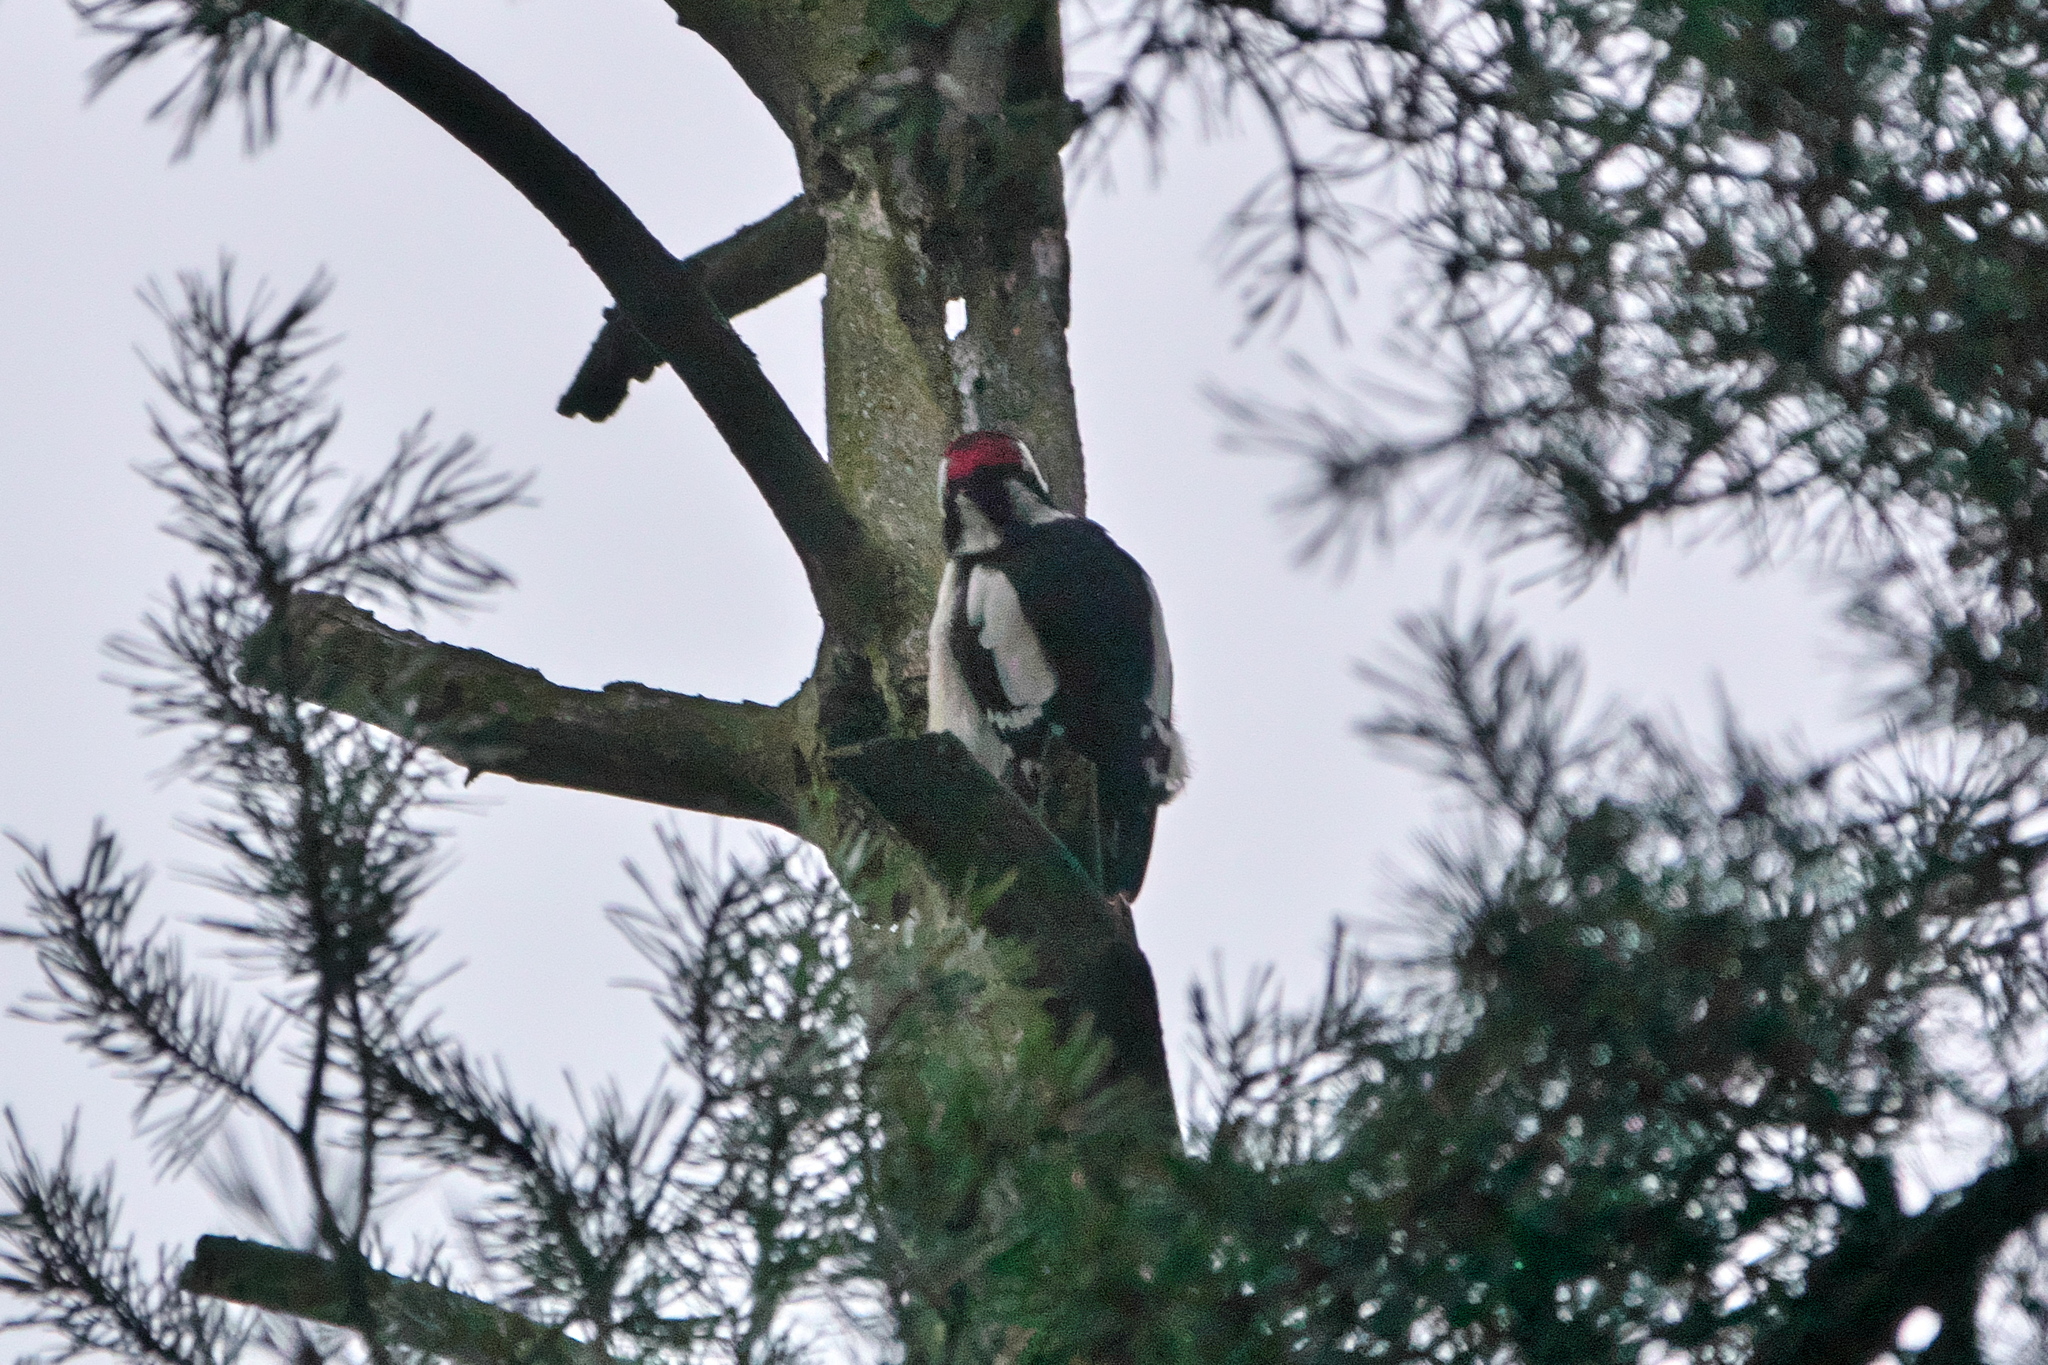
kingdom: Animalia
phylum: Chordata
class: Aves
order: Piciformes
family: Picidae
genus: Dendrocopos
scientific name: Dendrocopos major
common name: Great spotted woodpecker
